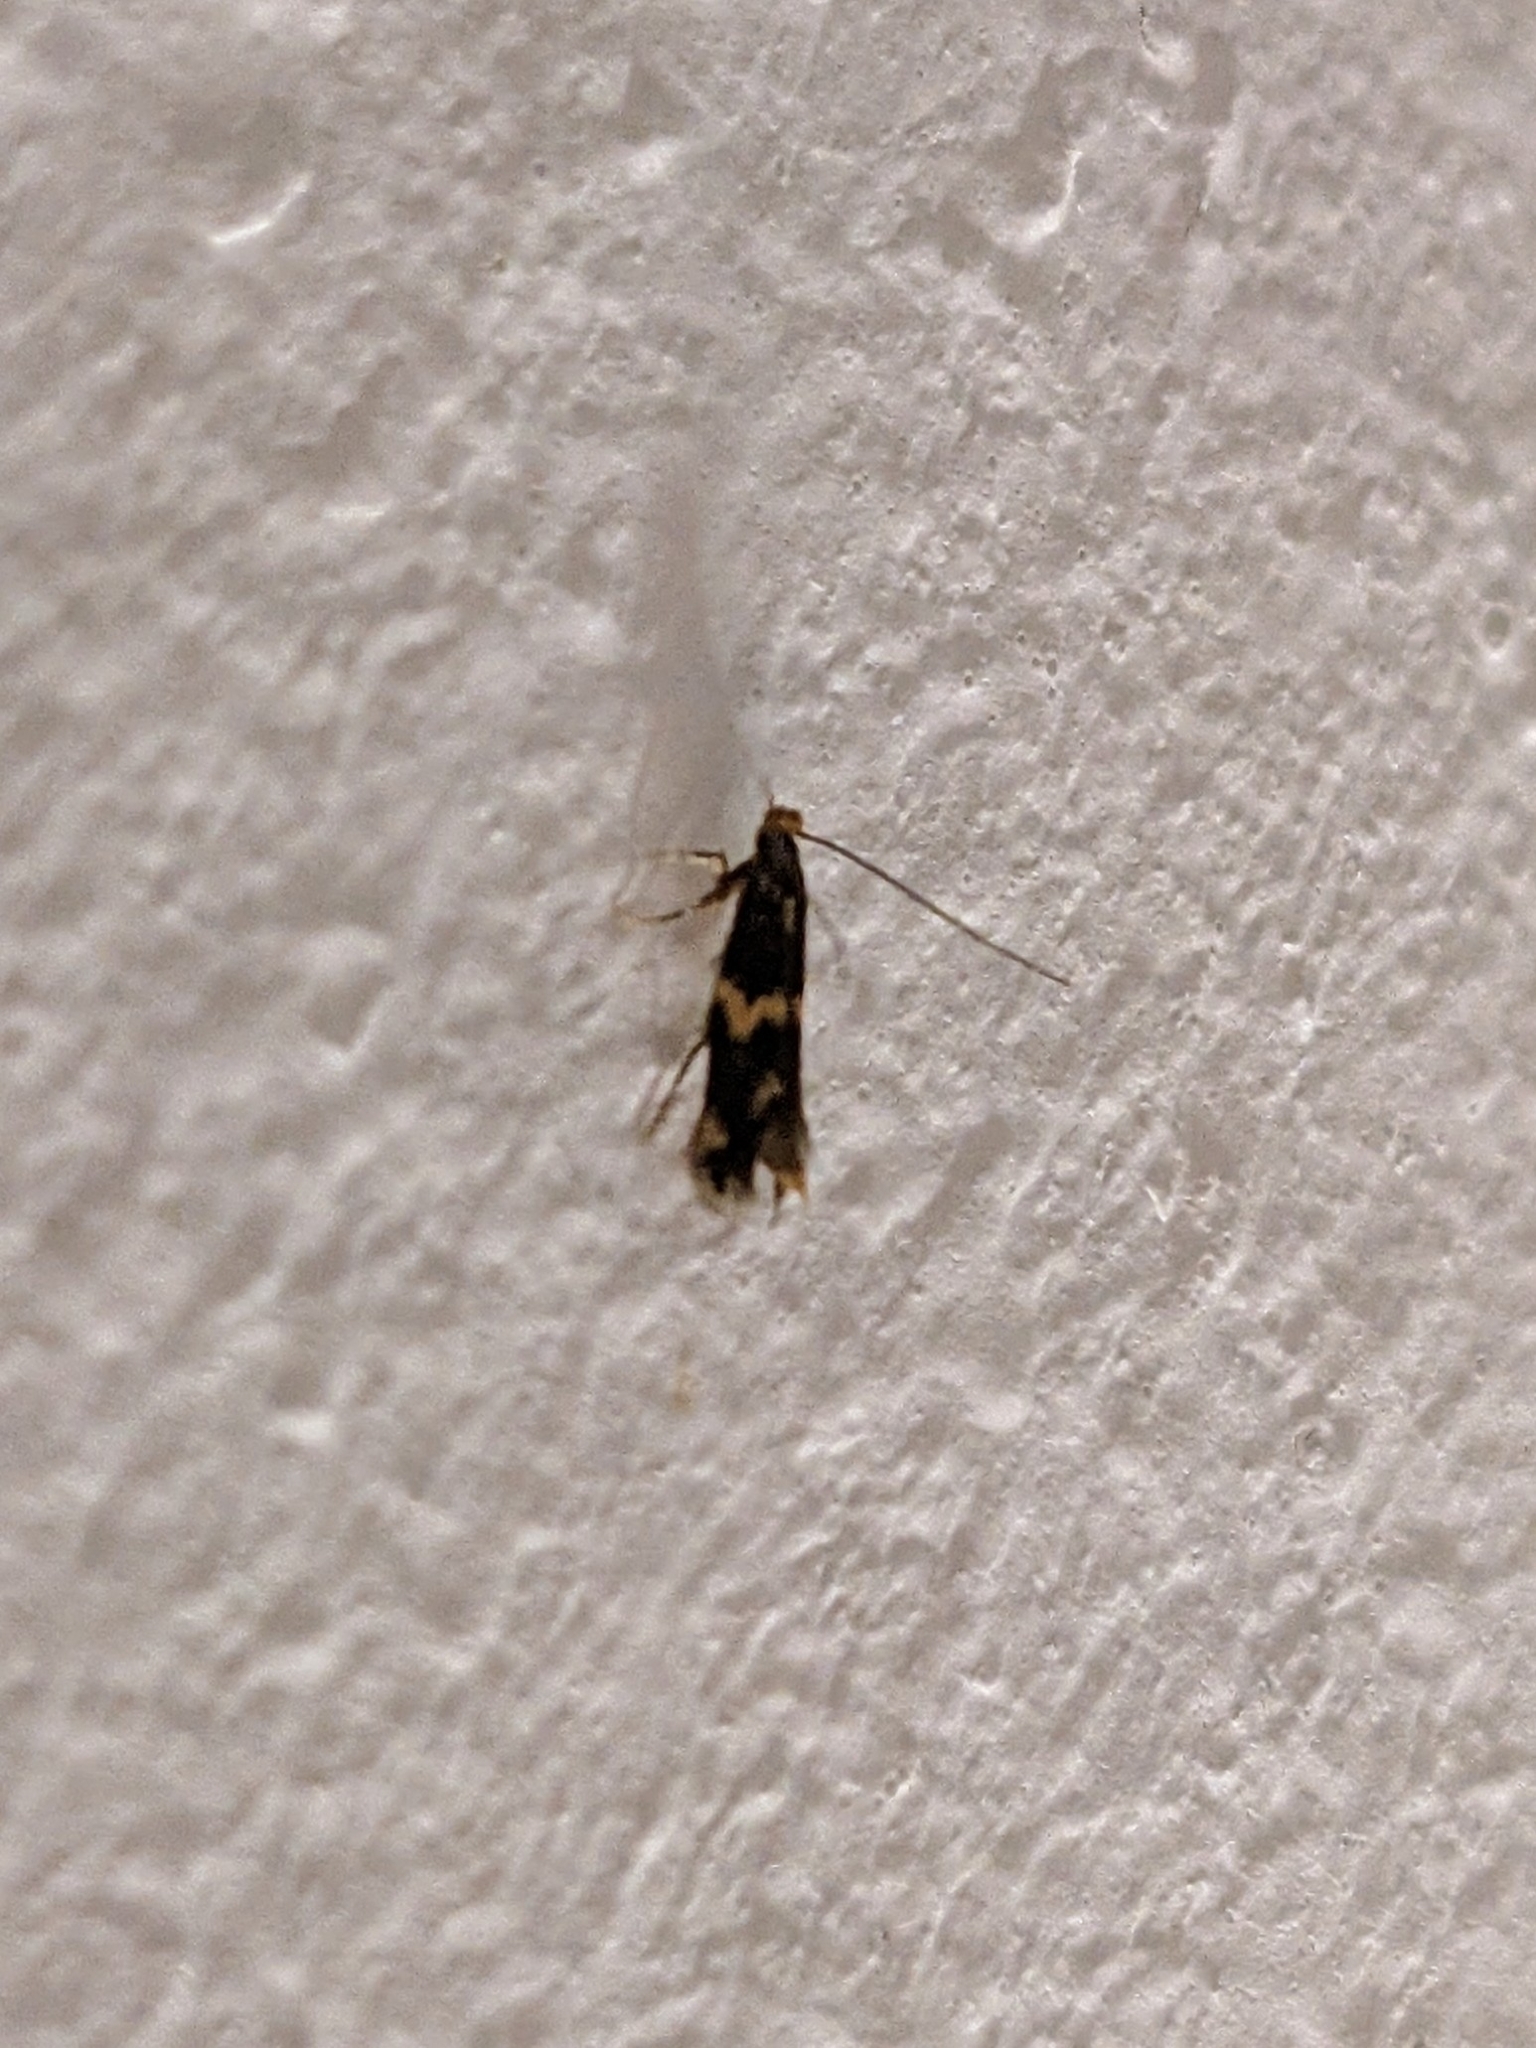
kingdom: Animalia
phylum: Arthropoda
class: Insecta
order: Lepidoptera
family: Tineidae
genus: Oinophila
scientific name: Oinophila v-flava
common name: Yellow v moth
